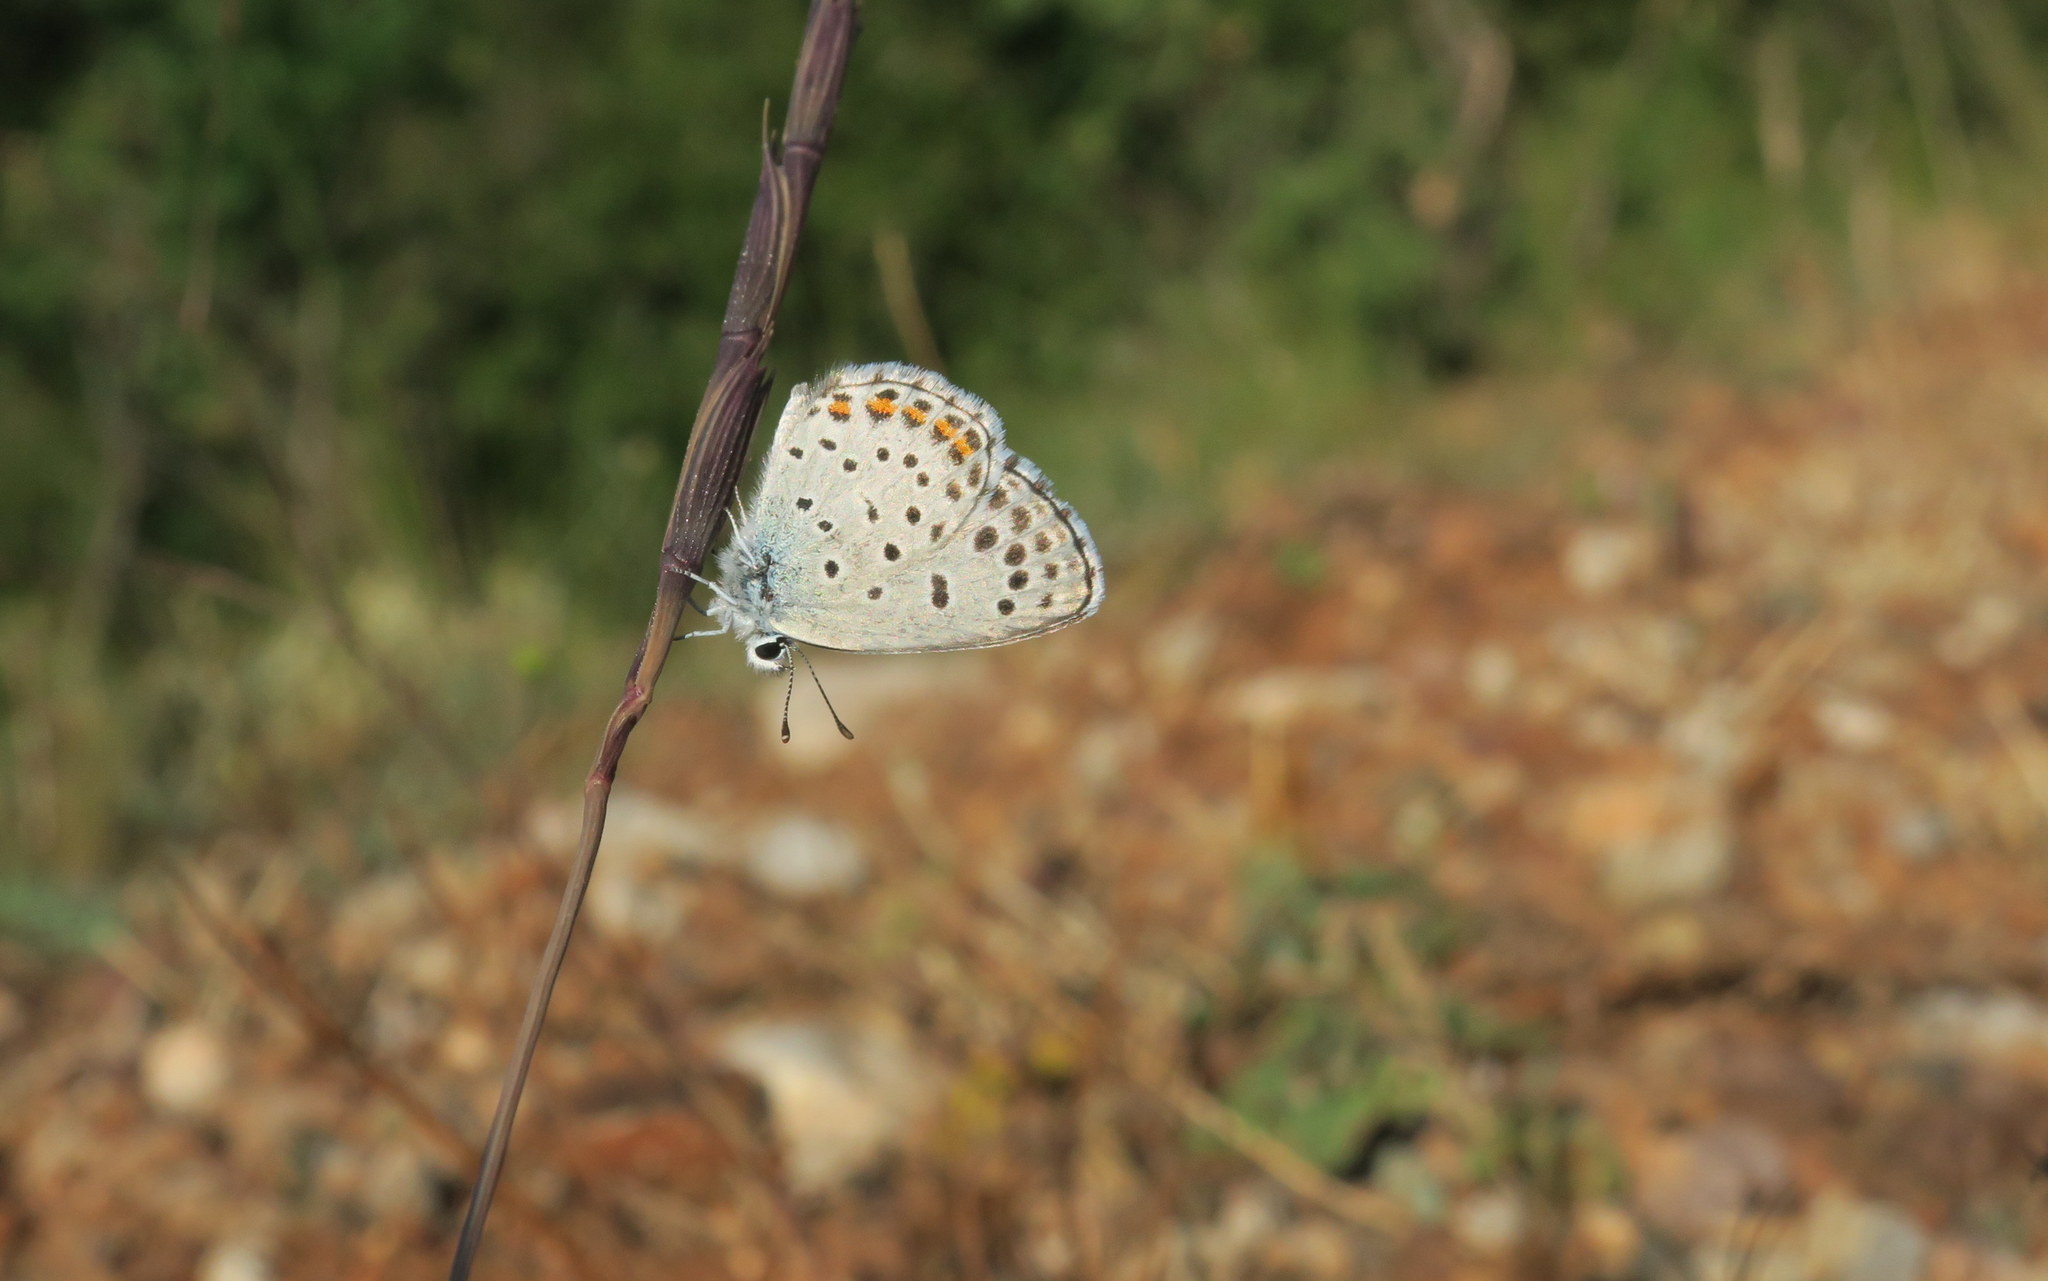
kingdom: Animalia
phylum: Arthropoda
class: Insecta
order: Lepidoptera
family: Lycaenidae
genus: Pseudophilotes
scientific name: Pseudophilotes baton
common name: Baton blue
